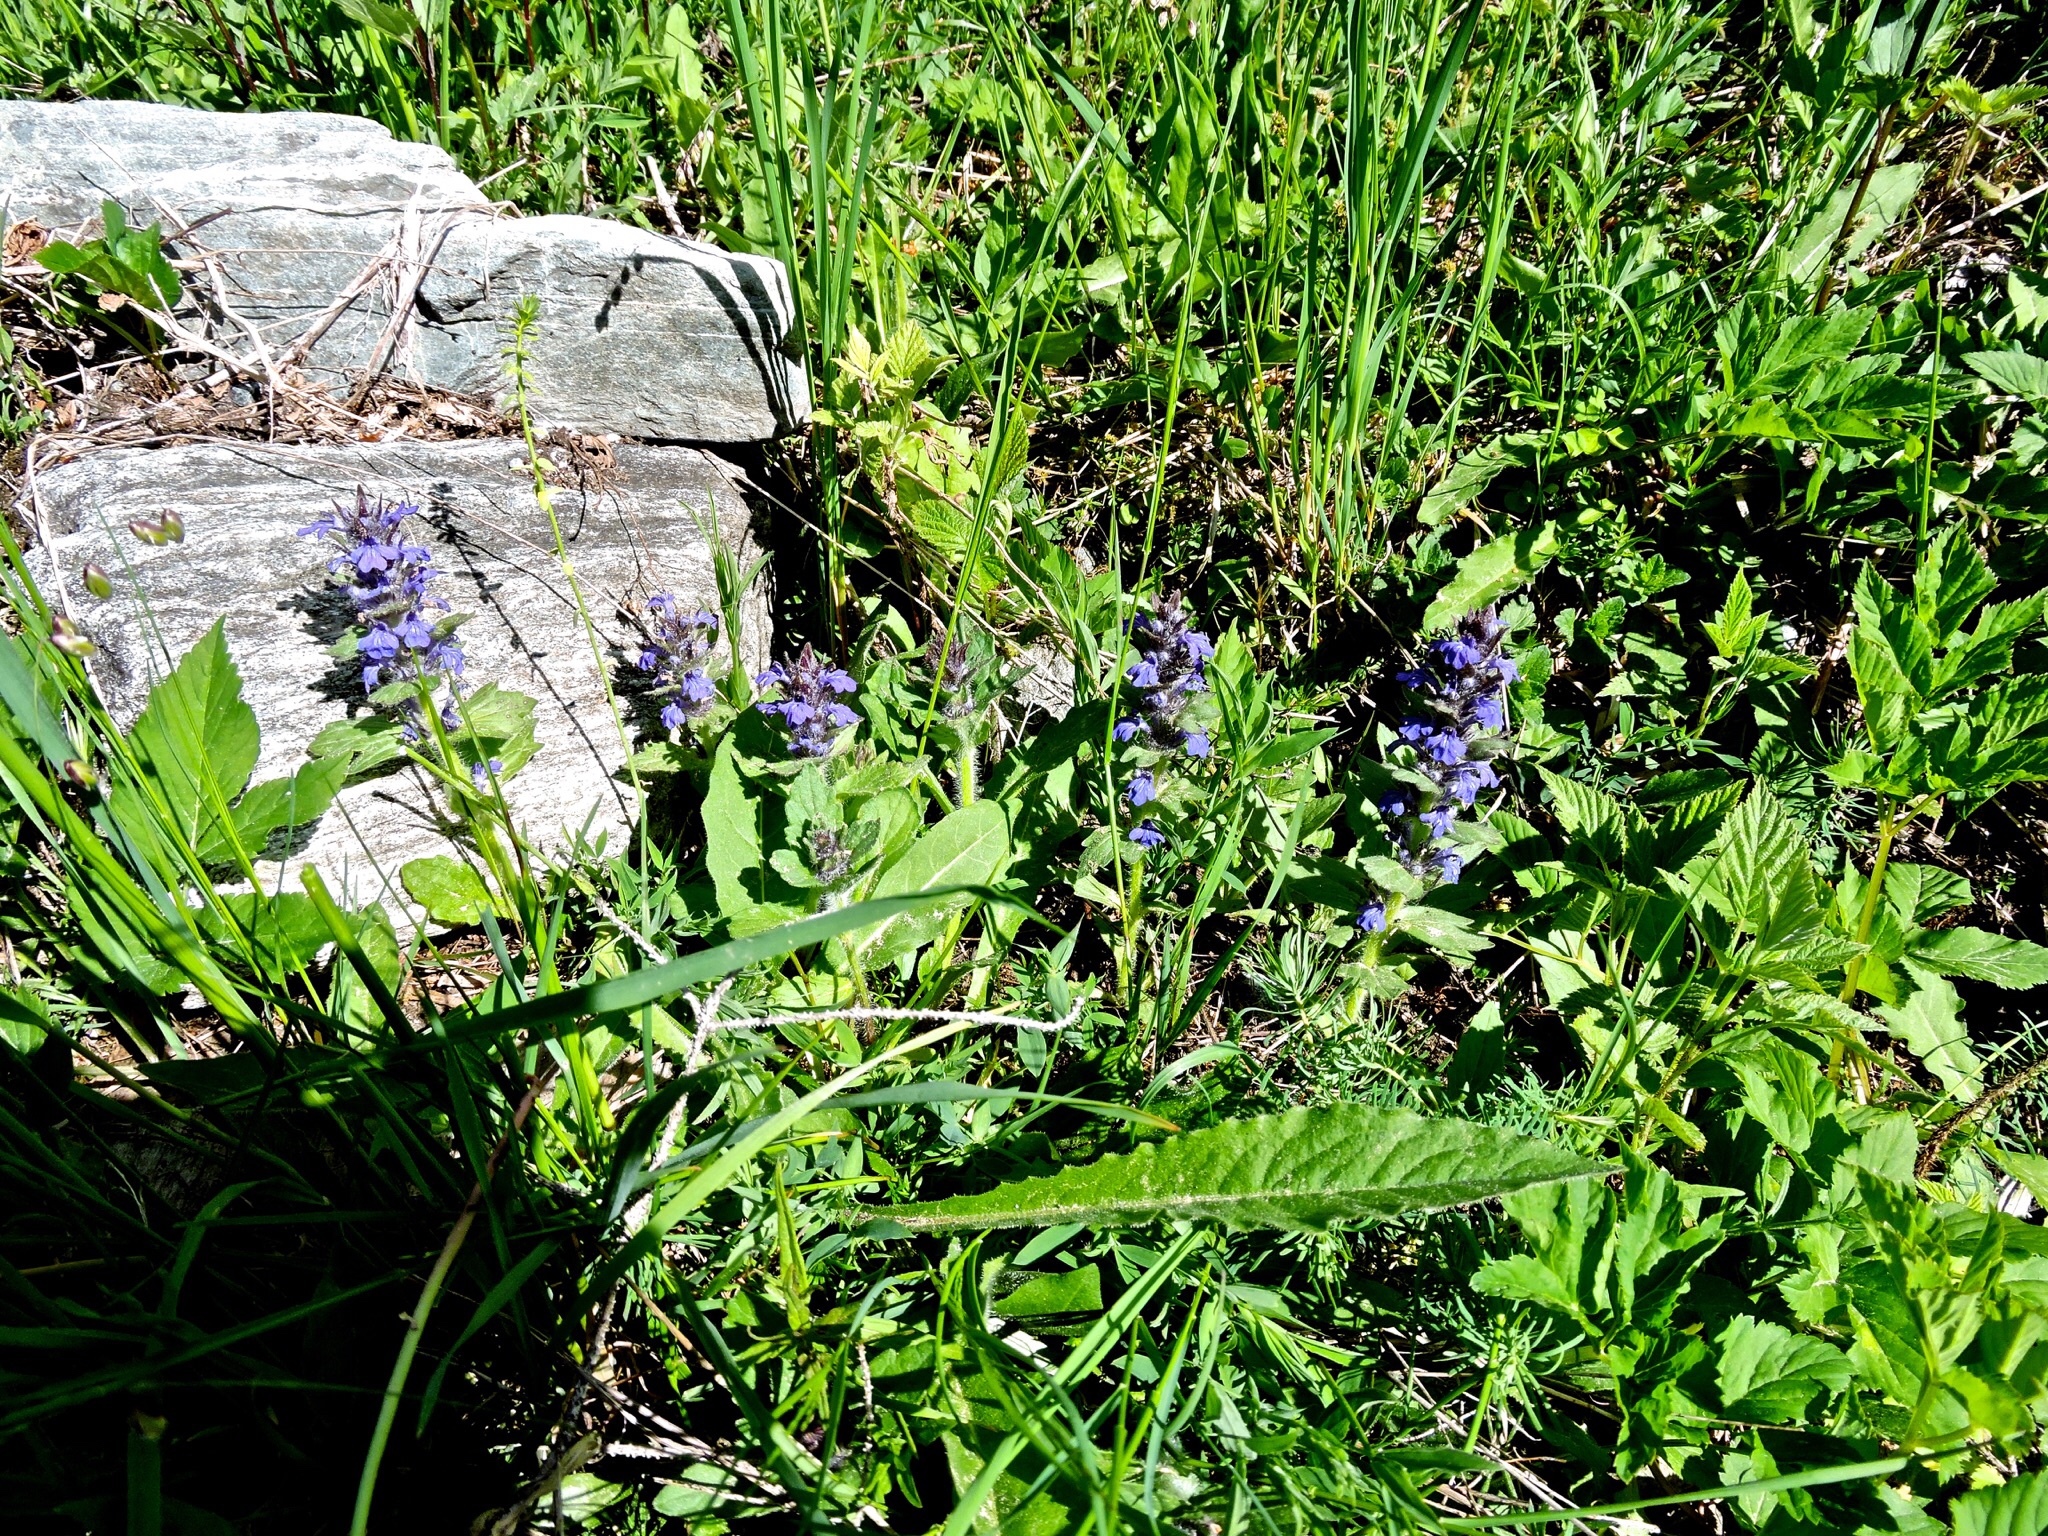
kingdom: Plantae
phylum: Tracheophyta
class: Magnoliopsida
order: Lamiales
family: Lamiaceae
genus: Ajuga
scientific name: Ajuga genevensis
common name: Blue bugle
